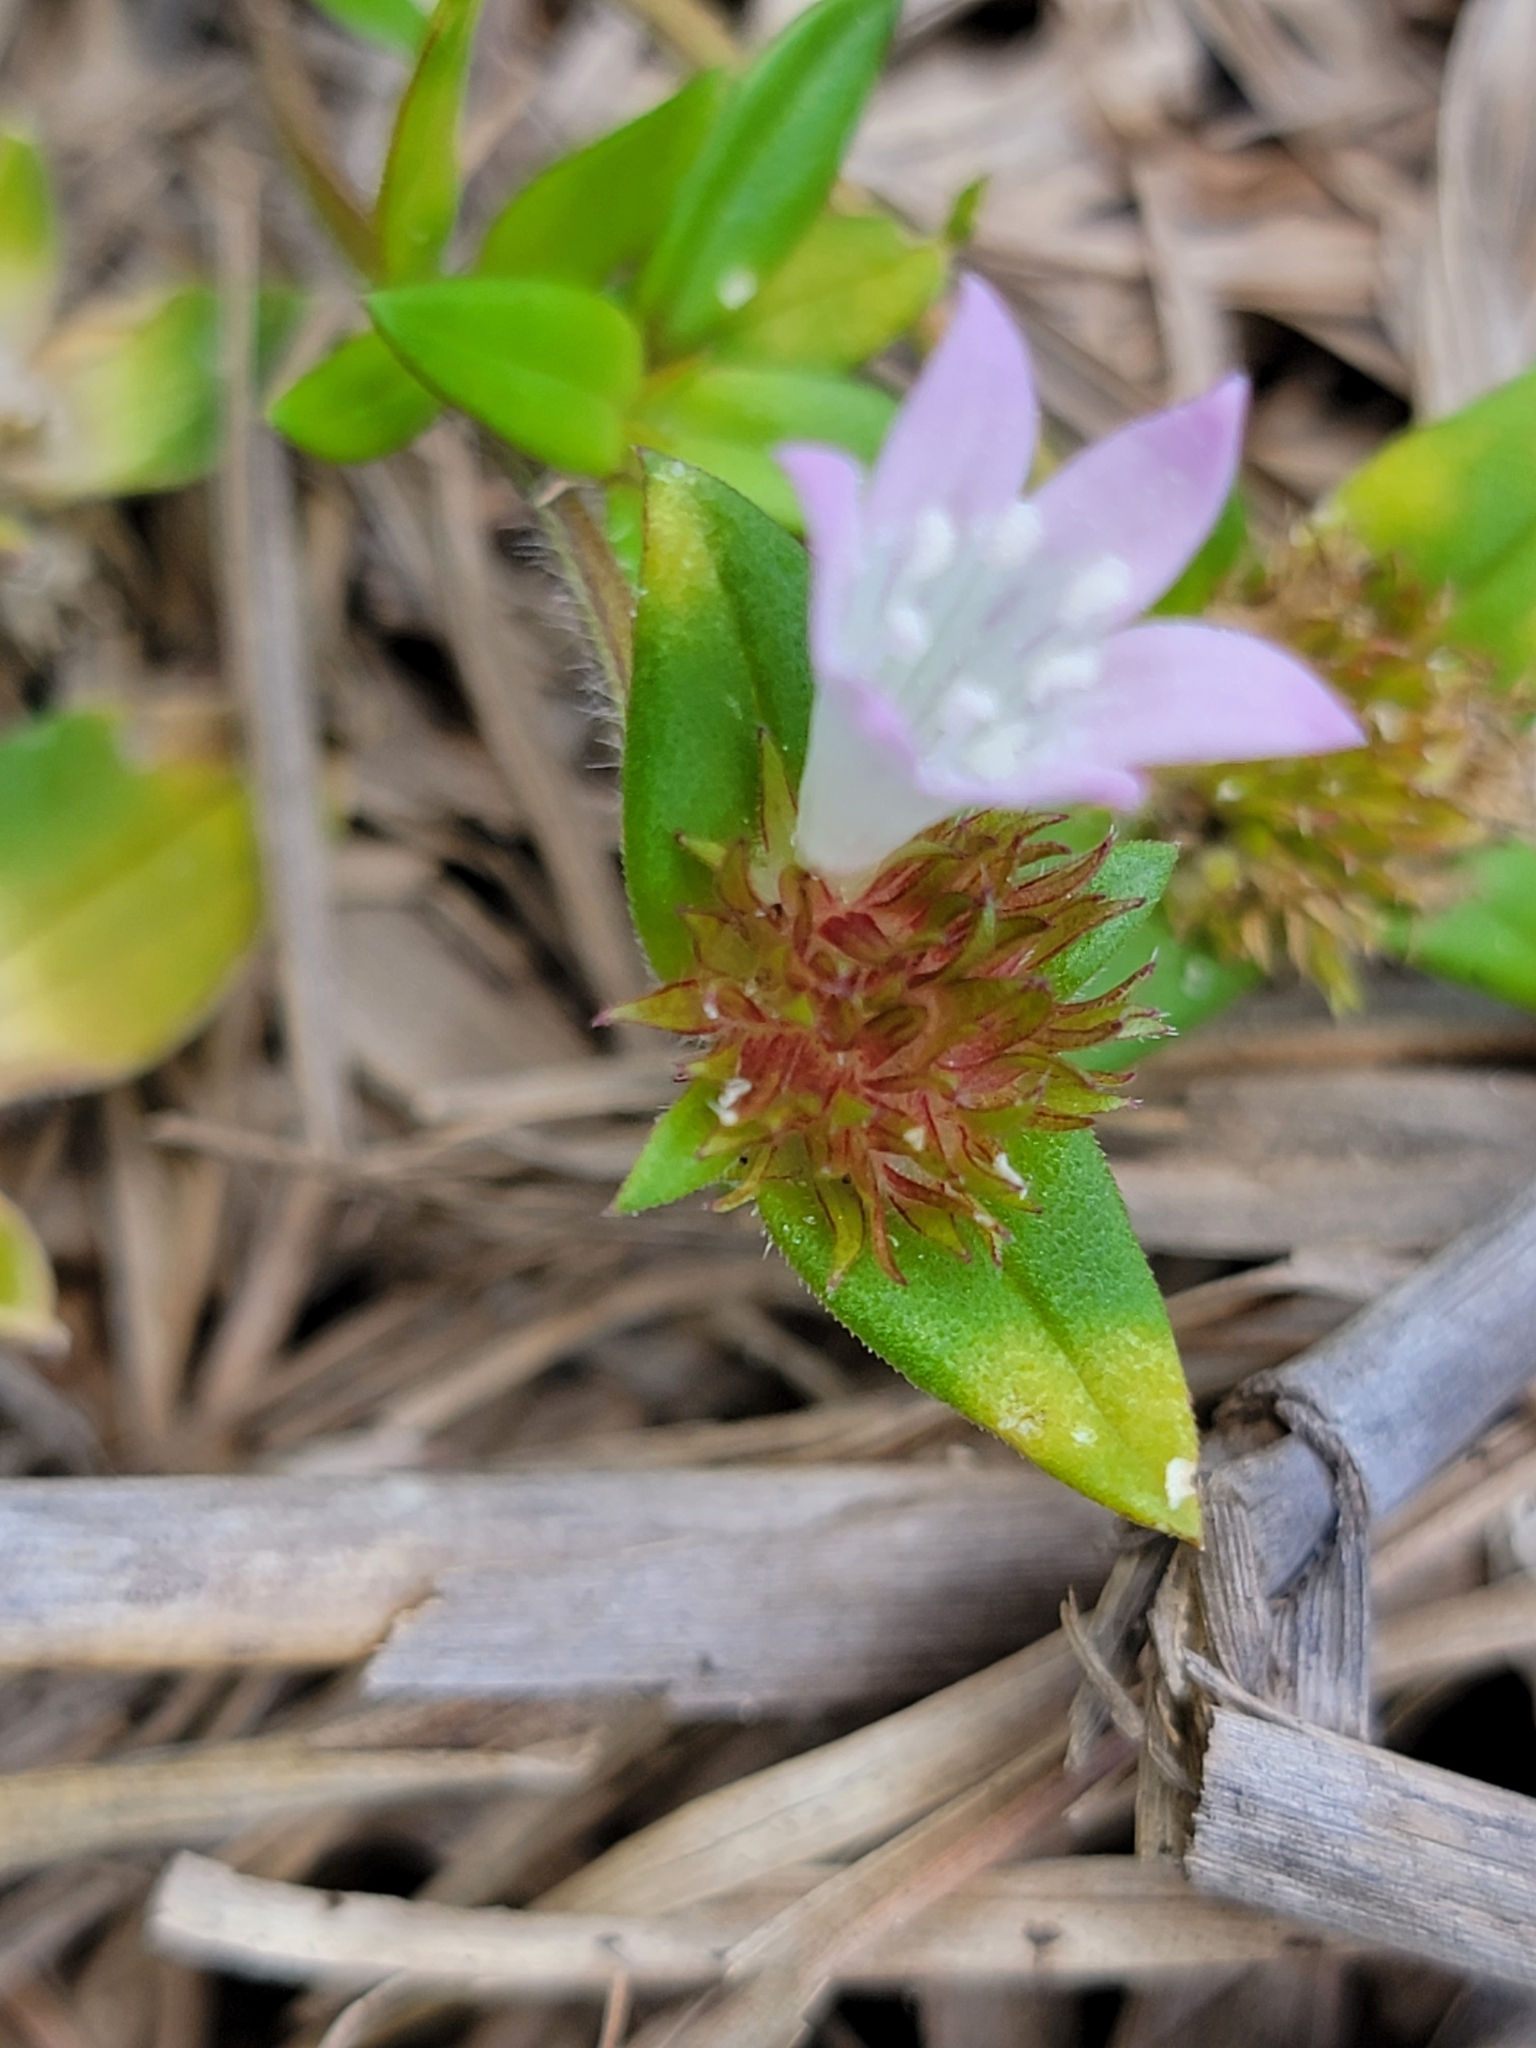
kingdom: Plantae
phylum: Tracheophyta
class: Magnoliopsida
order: Gentianales
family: Rubiaceae
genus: Richardia
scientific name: Richardia grandiflora
